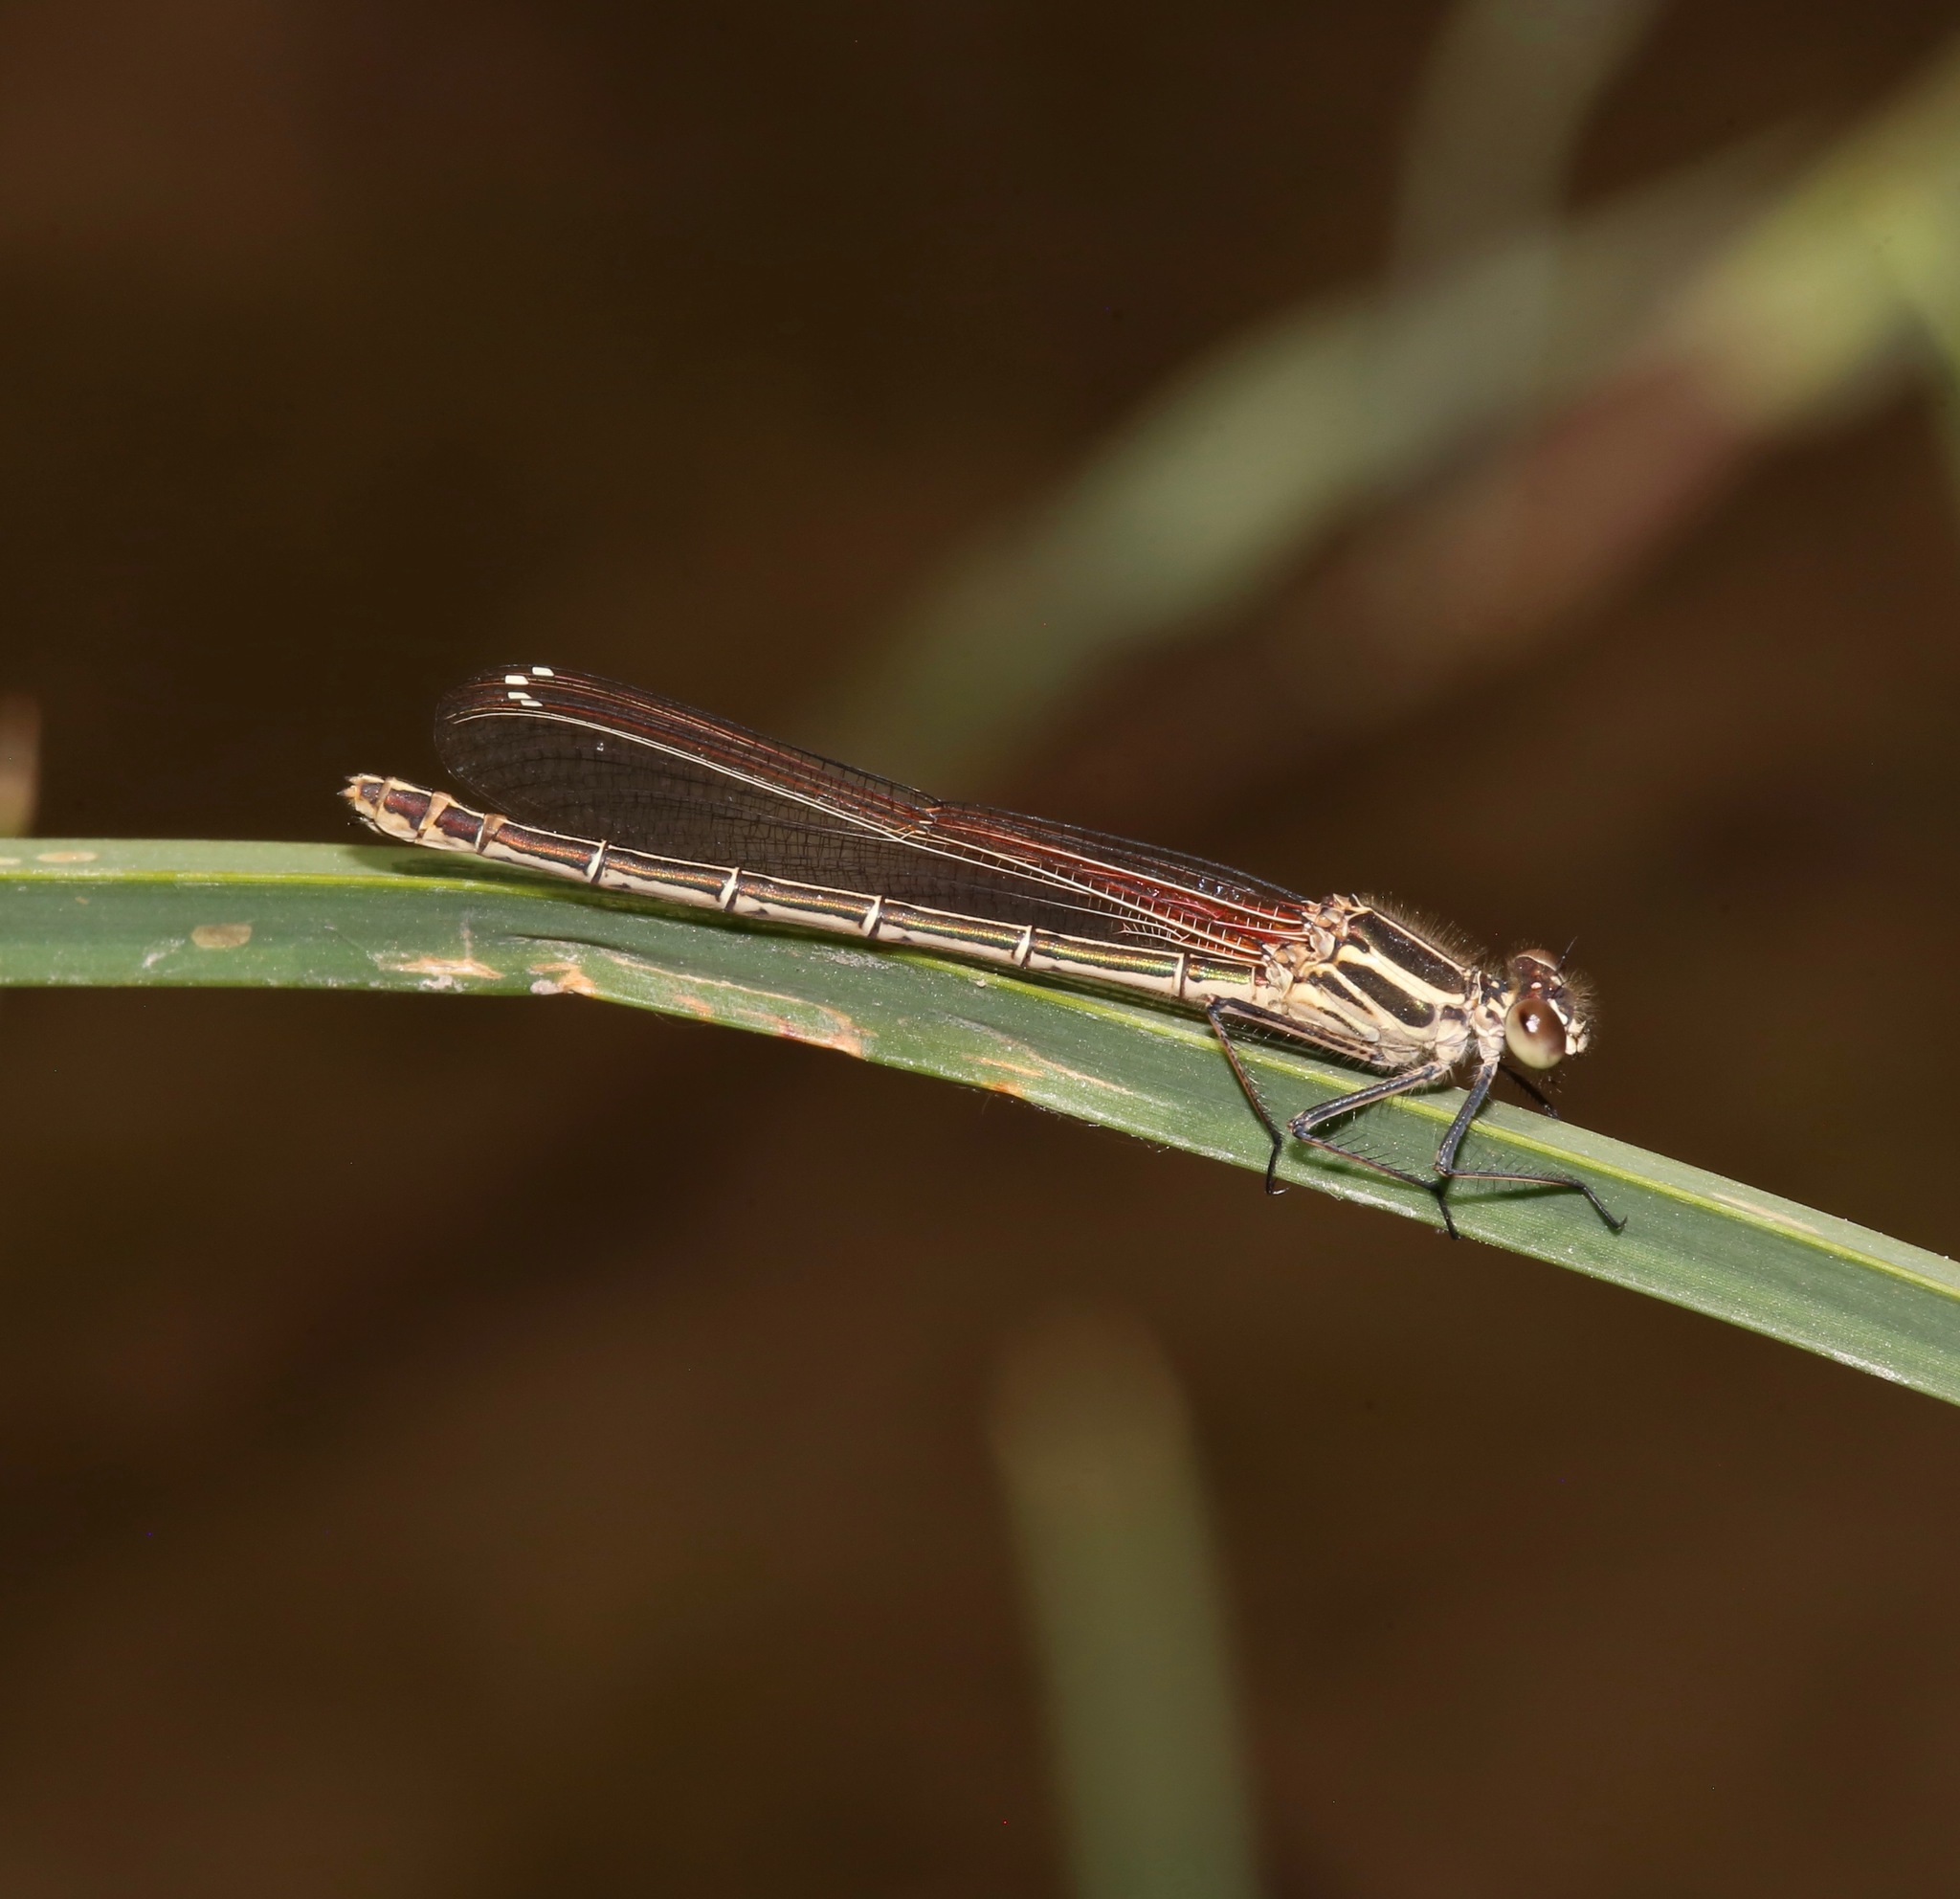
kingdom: Animalia
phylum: Arthropoda
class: Insecta
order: Odonata
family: Calopterygidae
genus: Hetaerina
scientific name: Hetaerina americana
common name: American rubyspot
